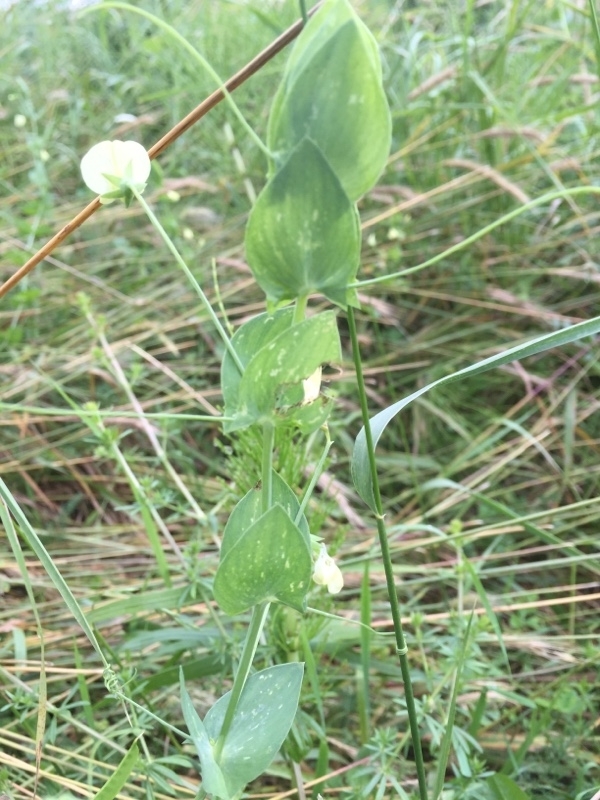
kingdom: Plantae
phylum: Tracheophyta
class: Magnoliopsida
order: Fabales
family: Fabaceae
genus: Lathyrus
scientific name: Lathyrus aphaca
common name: Yellow vetchling
